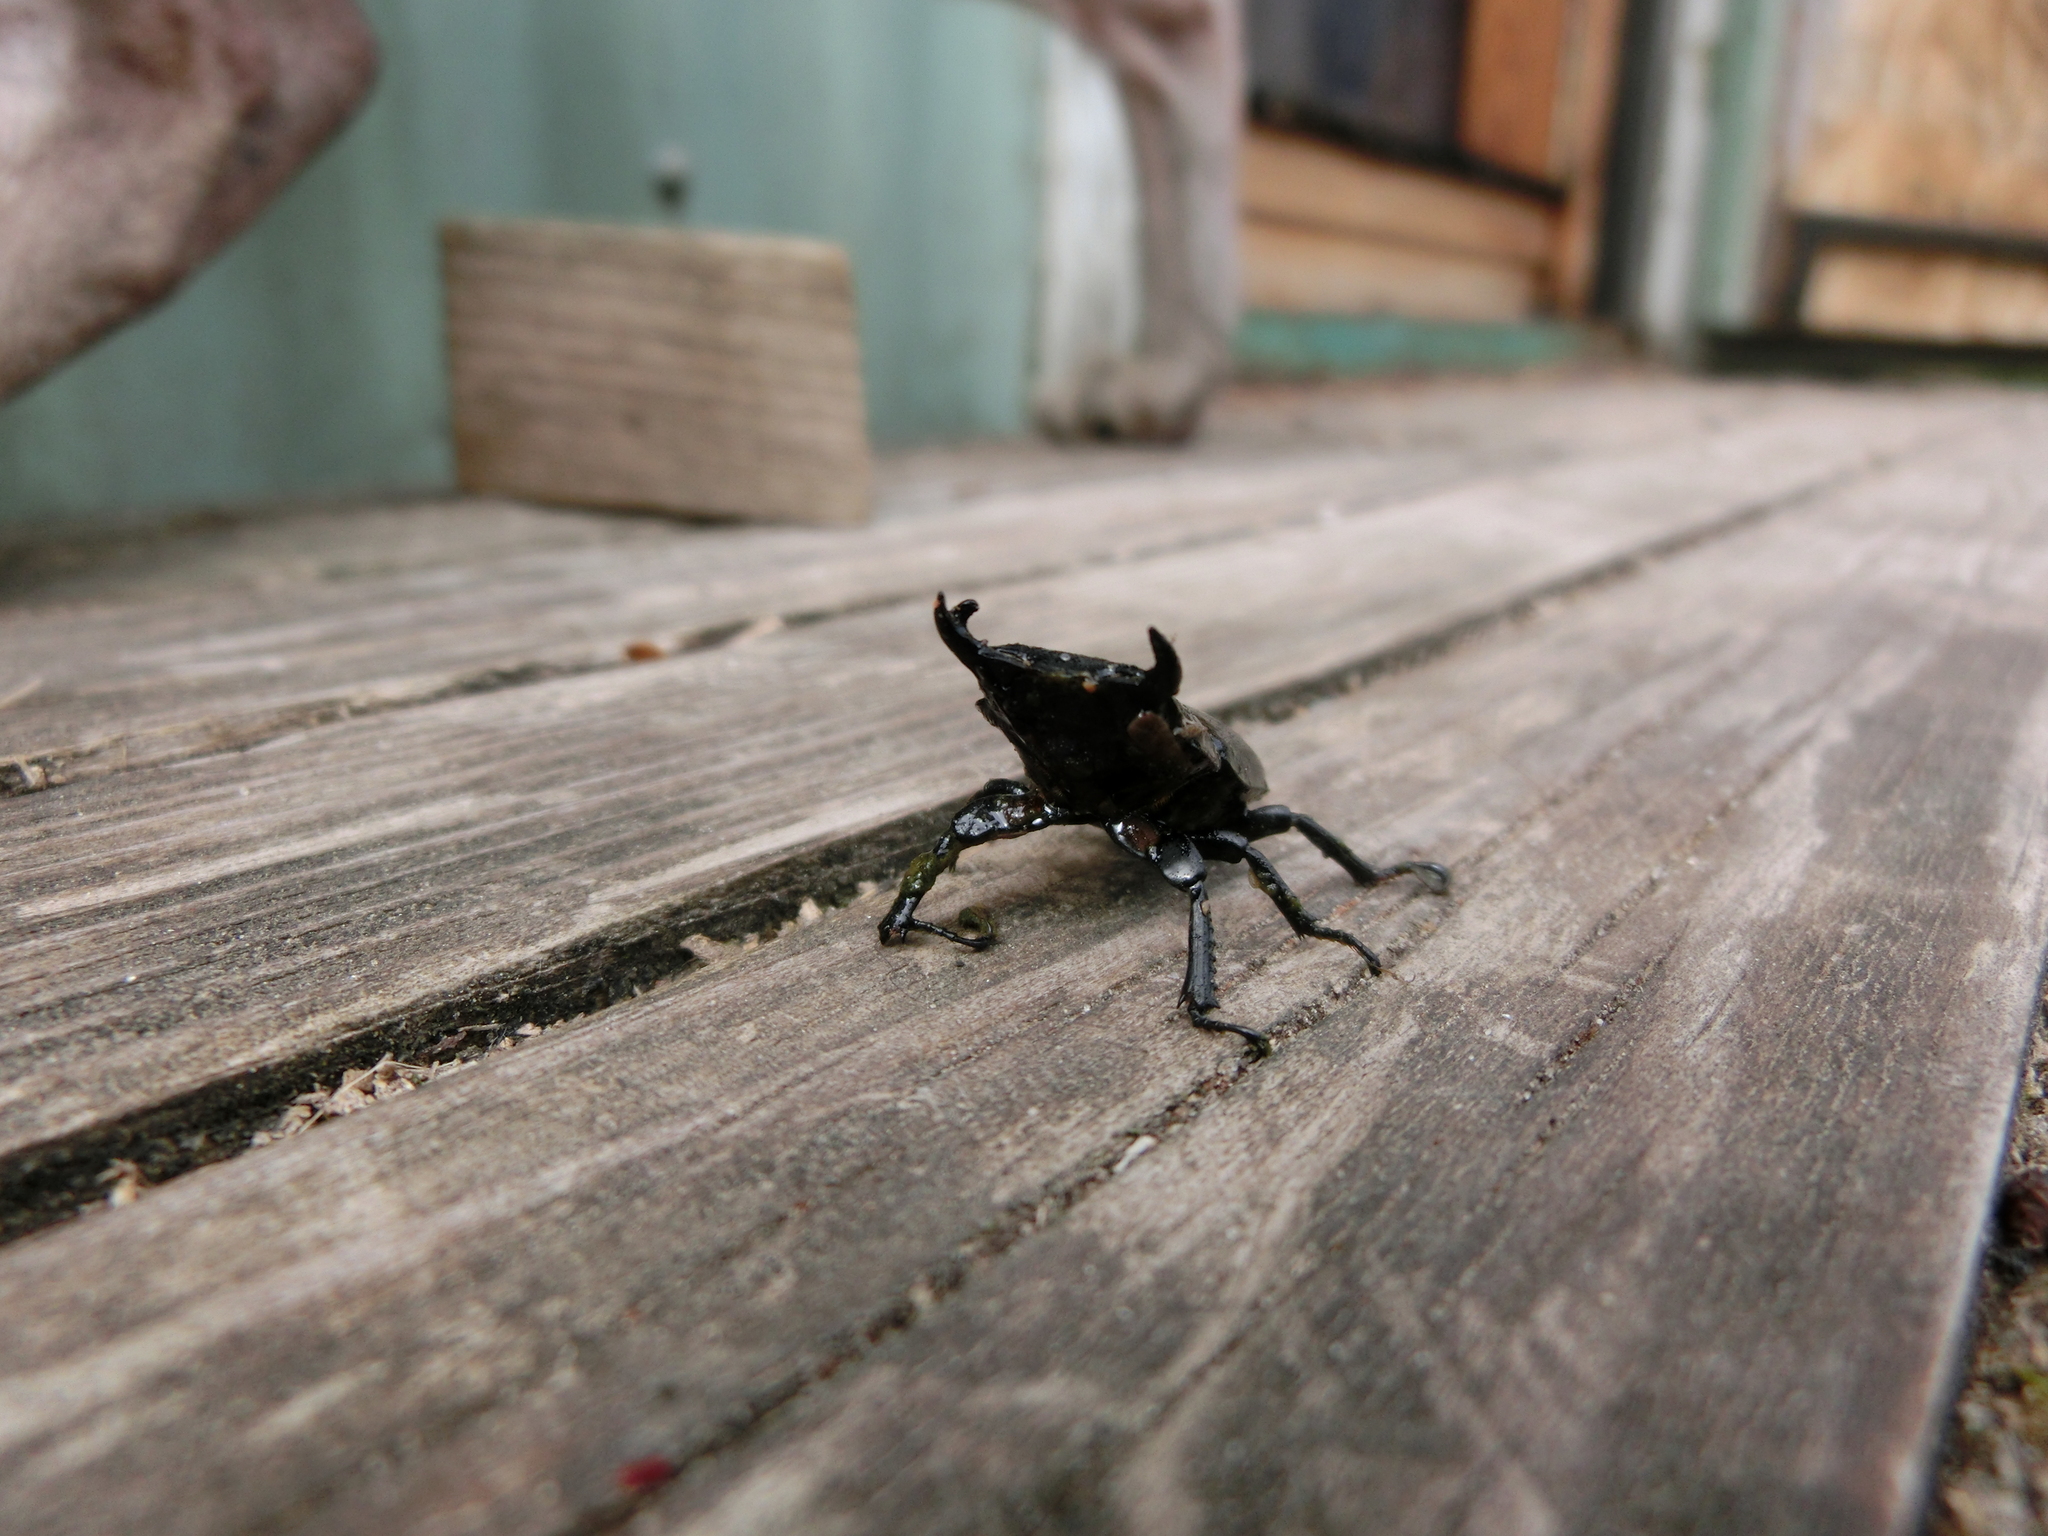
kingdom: Animalia
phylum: Arthropoda
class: Insecta
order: Coleoptera
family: Lucanidae
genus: Dorcus
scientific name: Dorcus parallelipipedus
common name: Lesser stag beetle
